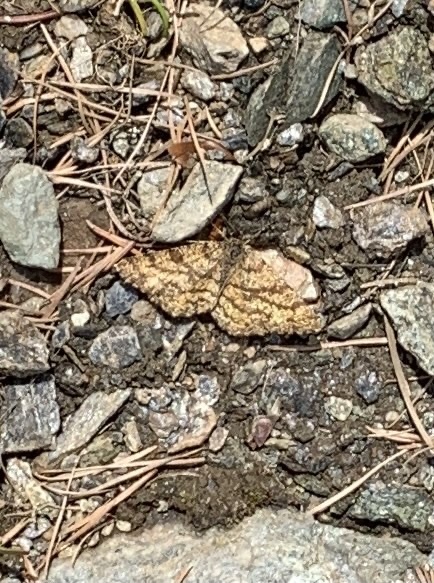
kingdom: Animalia
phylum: Arthropoda
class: Insecta
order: Lepidoptera
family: Geometridae
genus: Ematurga
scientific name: Ematurga atomaria
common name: Common heath
